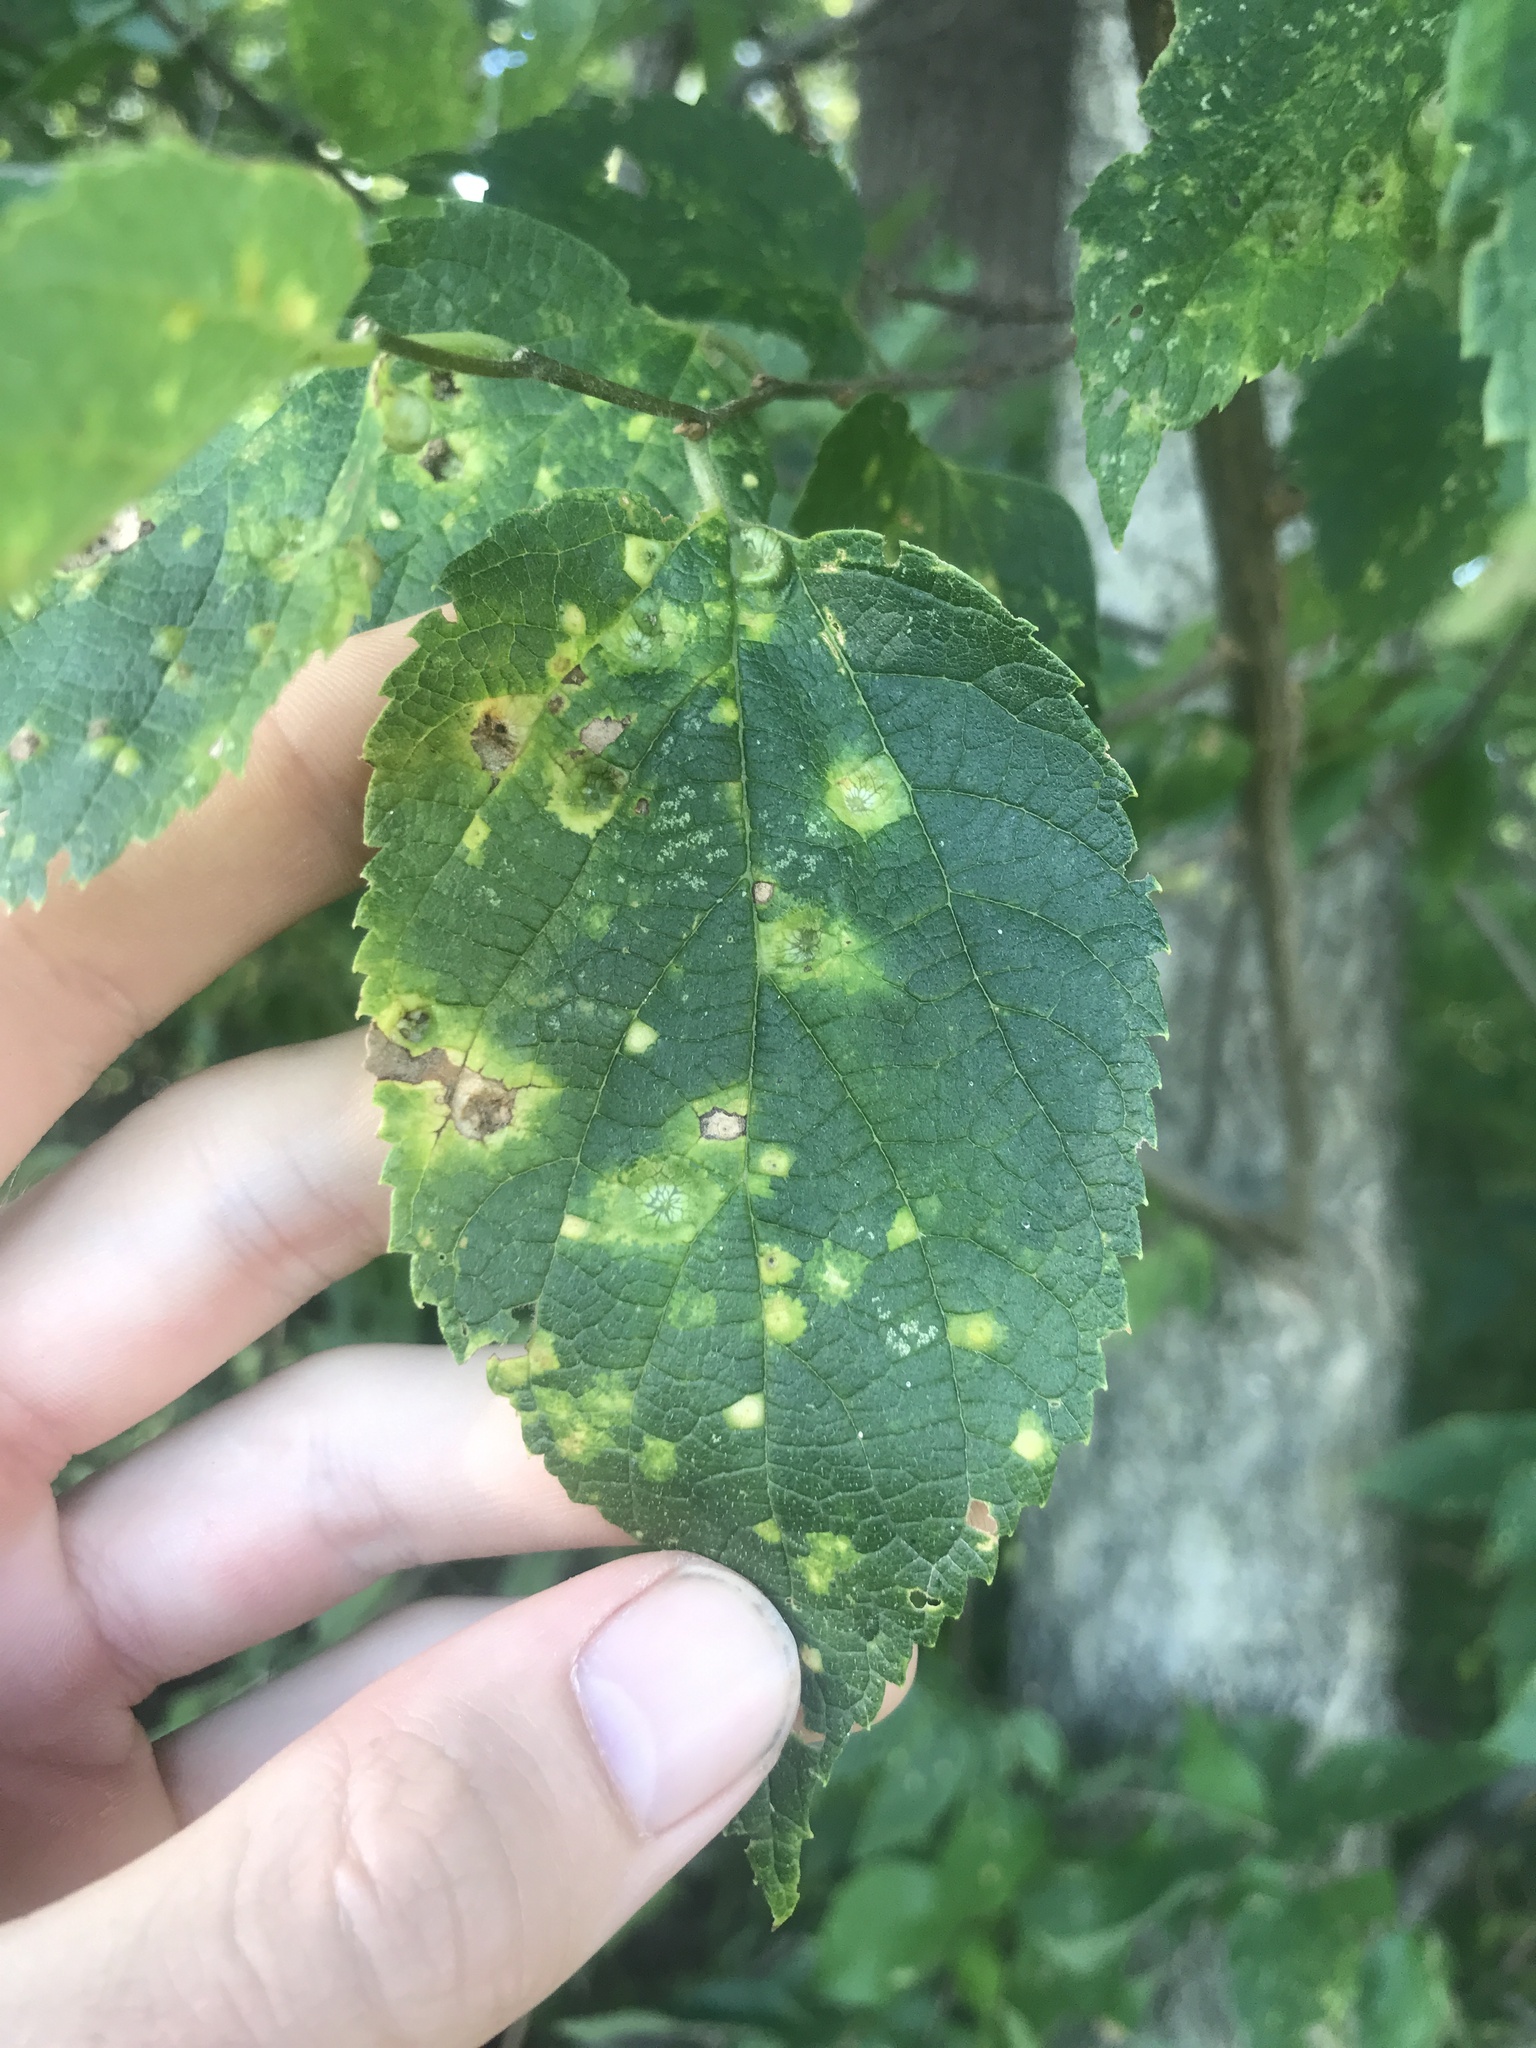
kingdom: Animalia
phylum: Arthropoda
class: Insecta
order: Hemiptera
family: Aphalaridae
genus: Pachypsylla
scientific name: Pachypsylla celtidismamma
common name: Hackberry nipplegall psyllid
